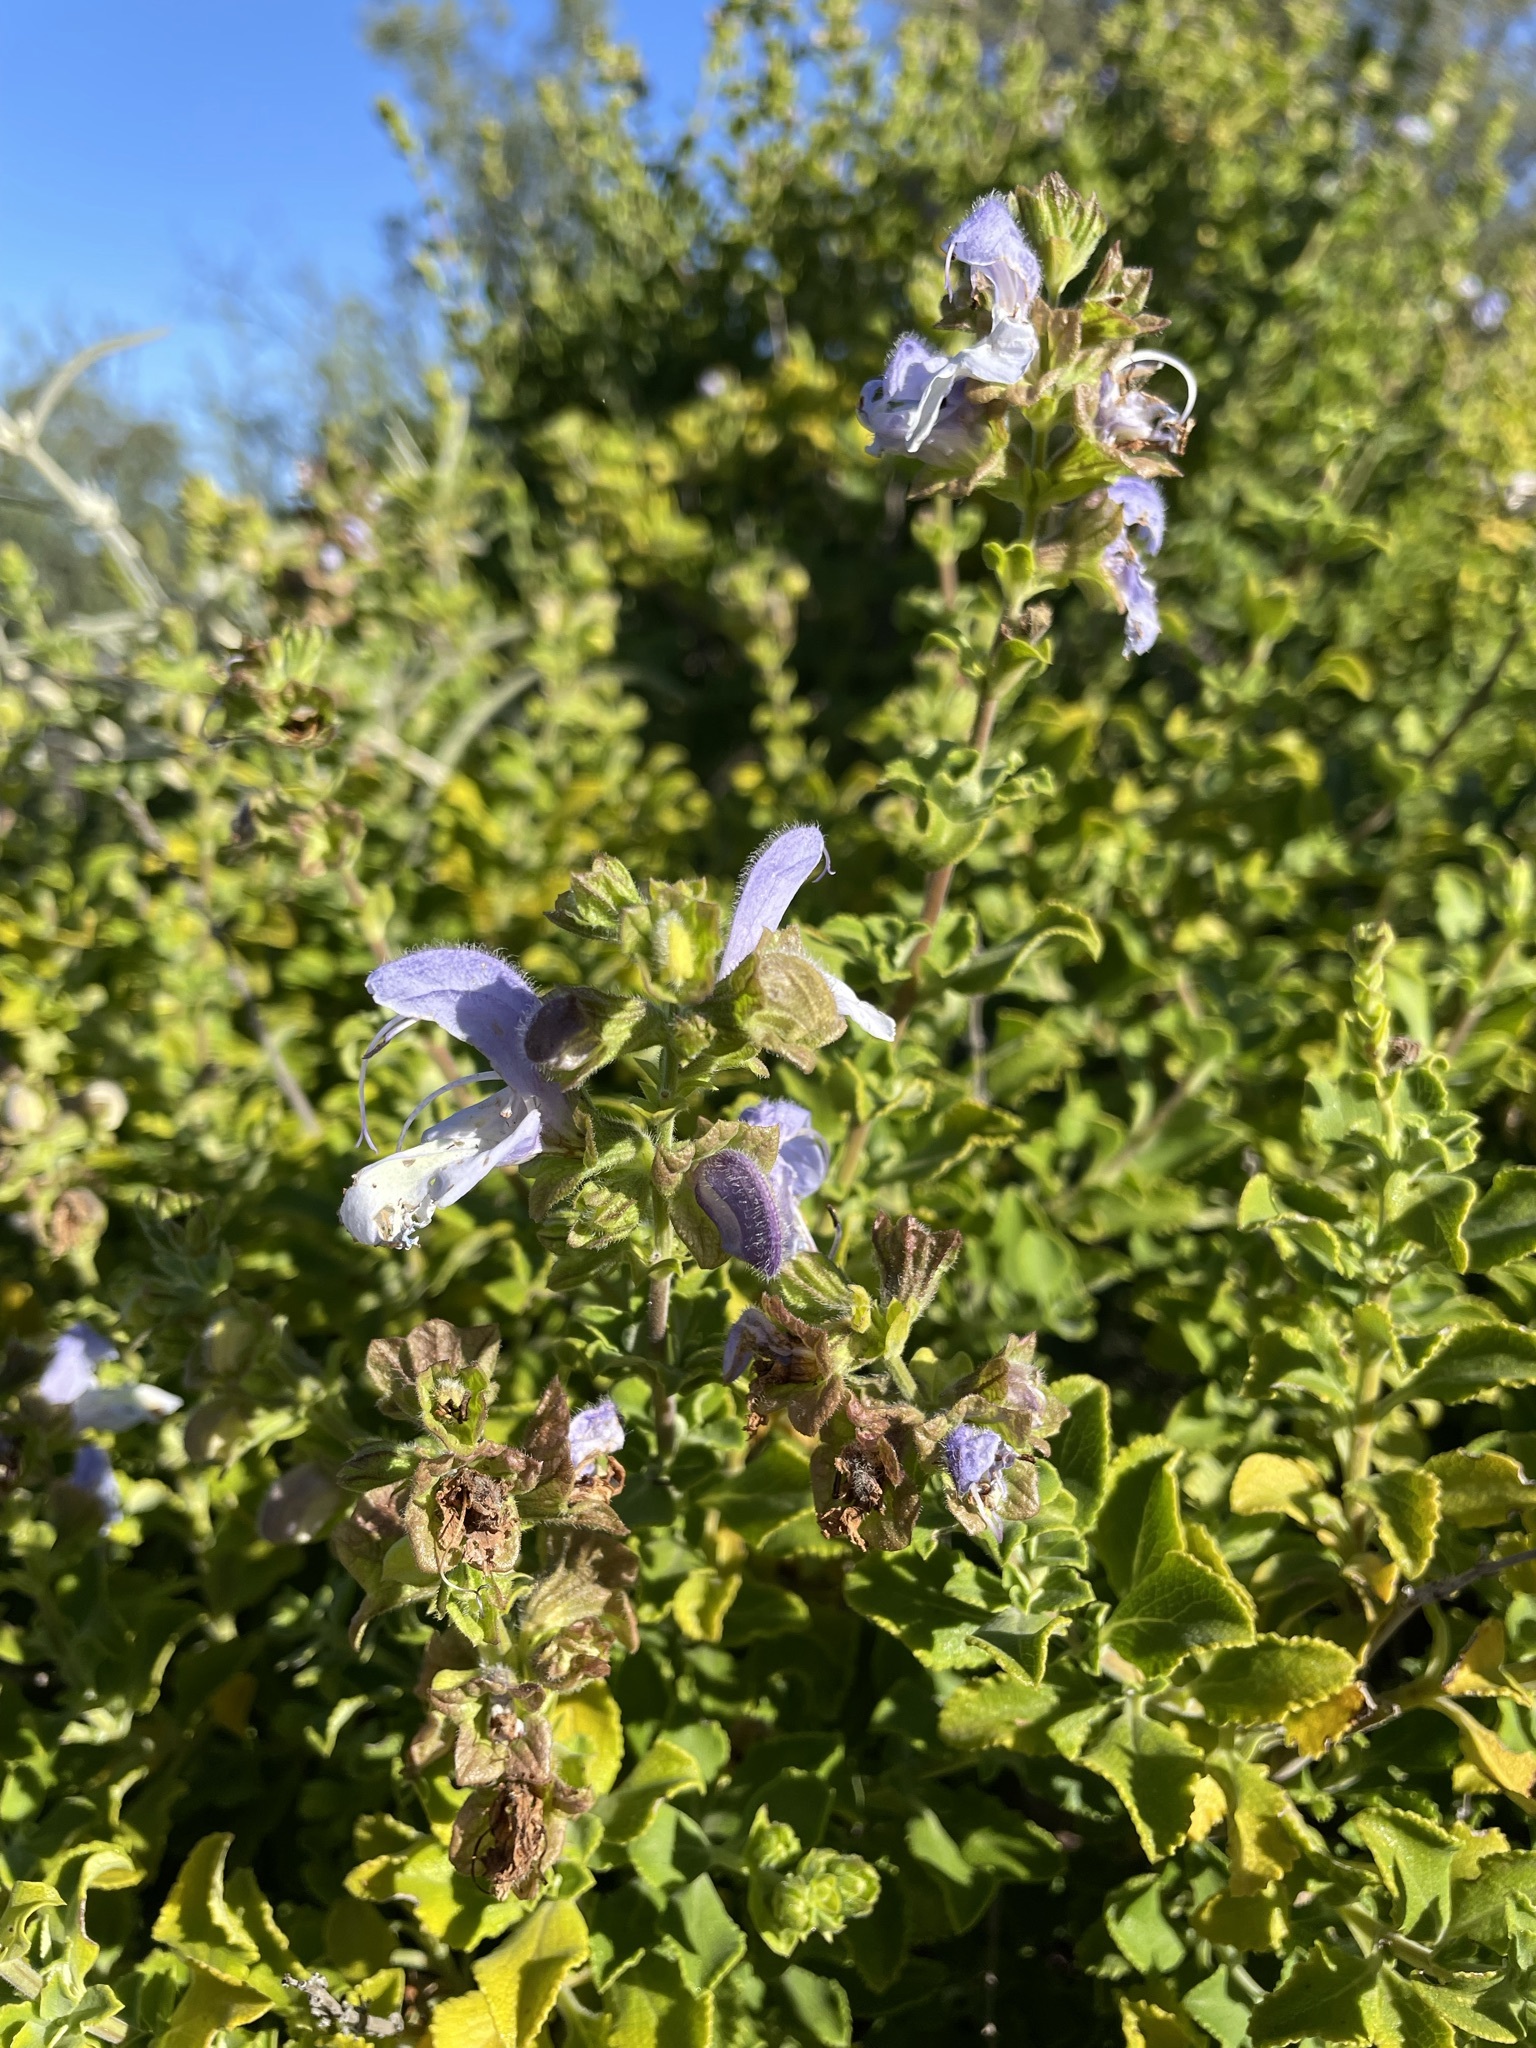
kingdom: Plantae
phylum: Tracheophyta
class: Magnoliopsida
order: Lamiales
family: Lamiaceae
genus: Salvia
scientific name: Salvia africana
